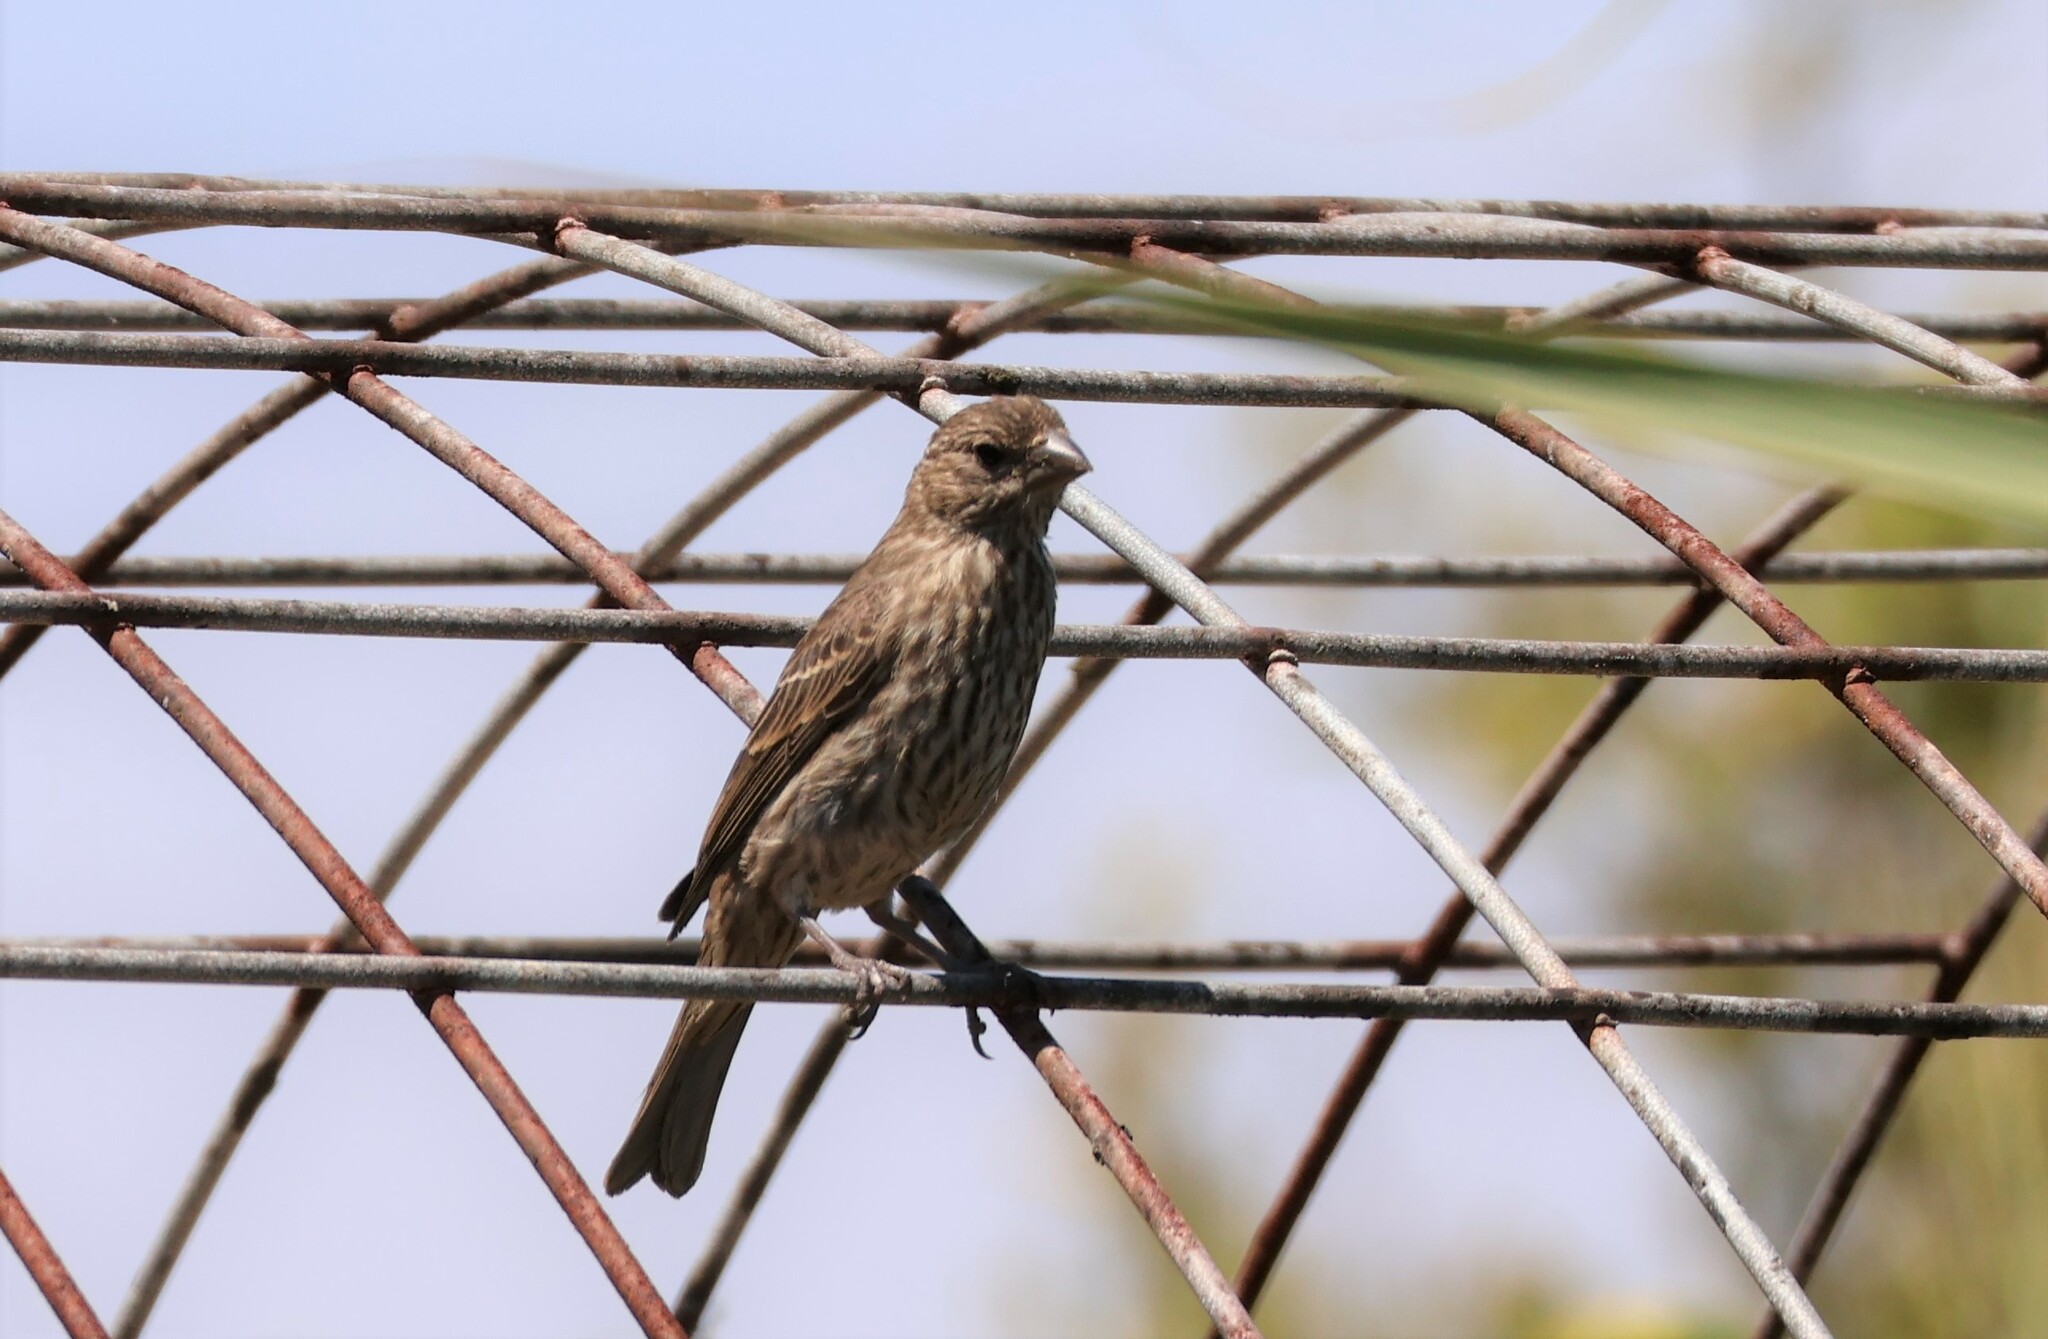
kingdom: Animalia
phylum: Chordata
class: Aves
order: Passeriformes
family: Fringillidae
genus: Haemorhous
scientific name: Haemorhous mexicanus
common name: House finch
